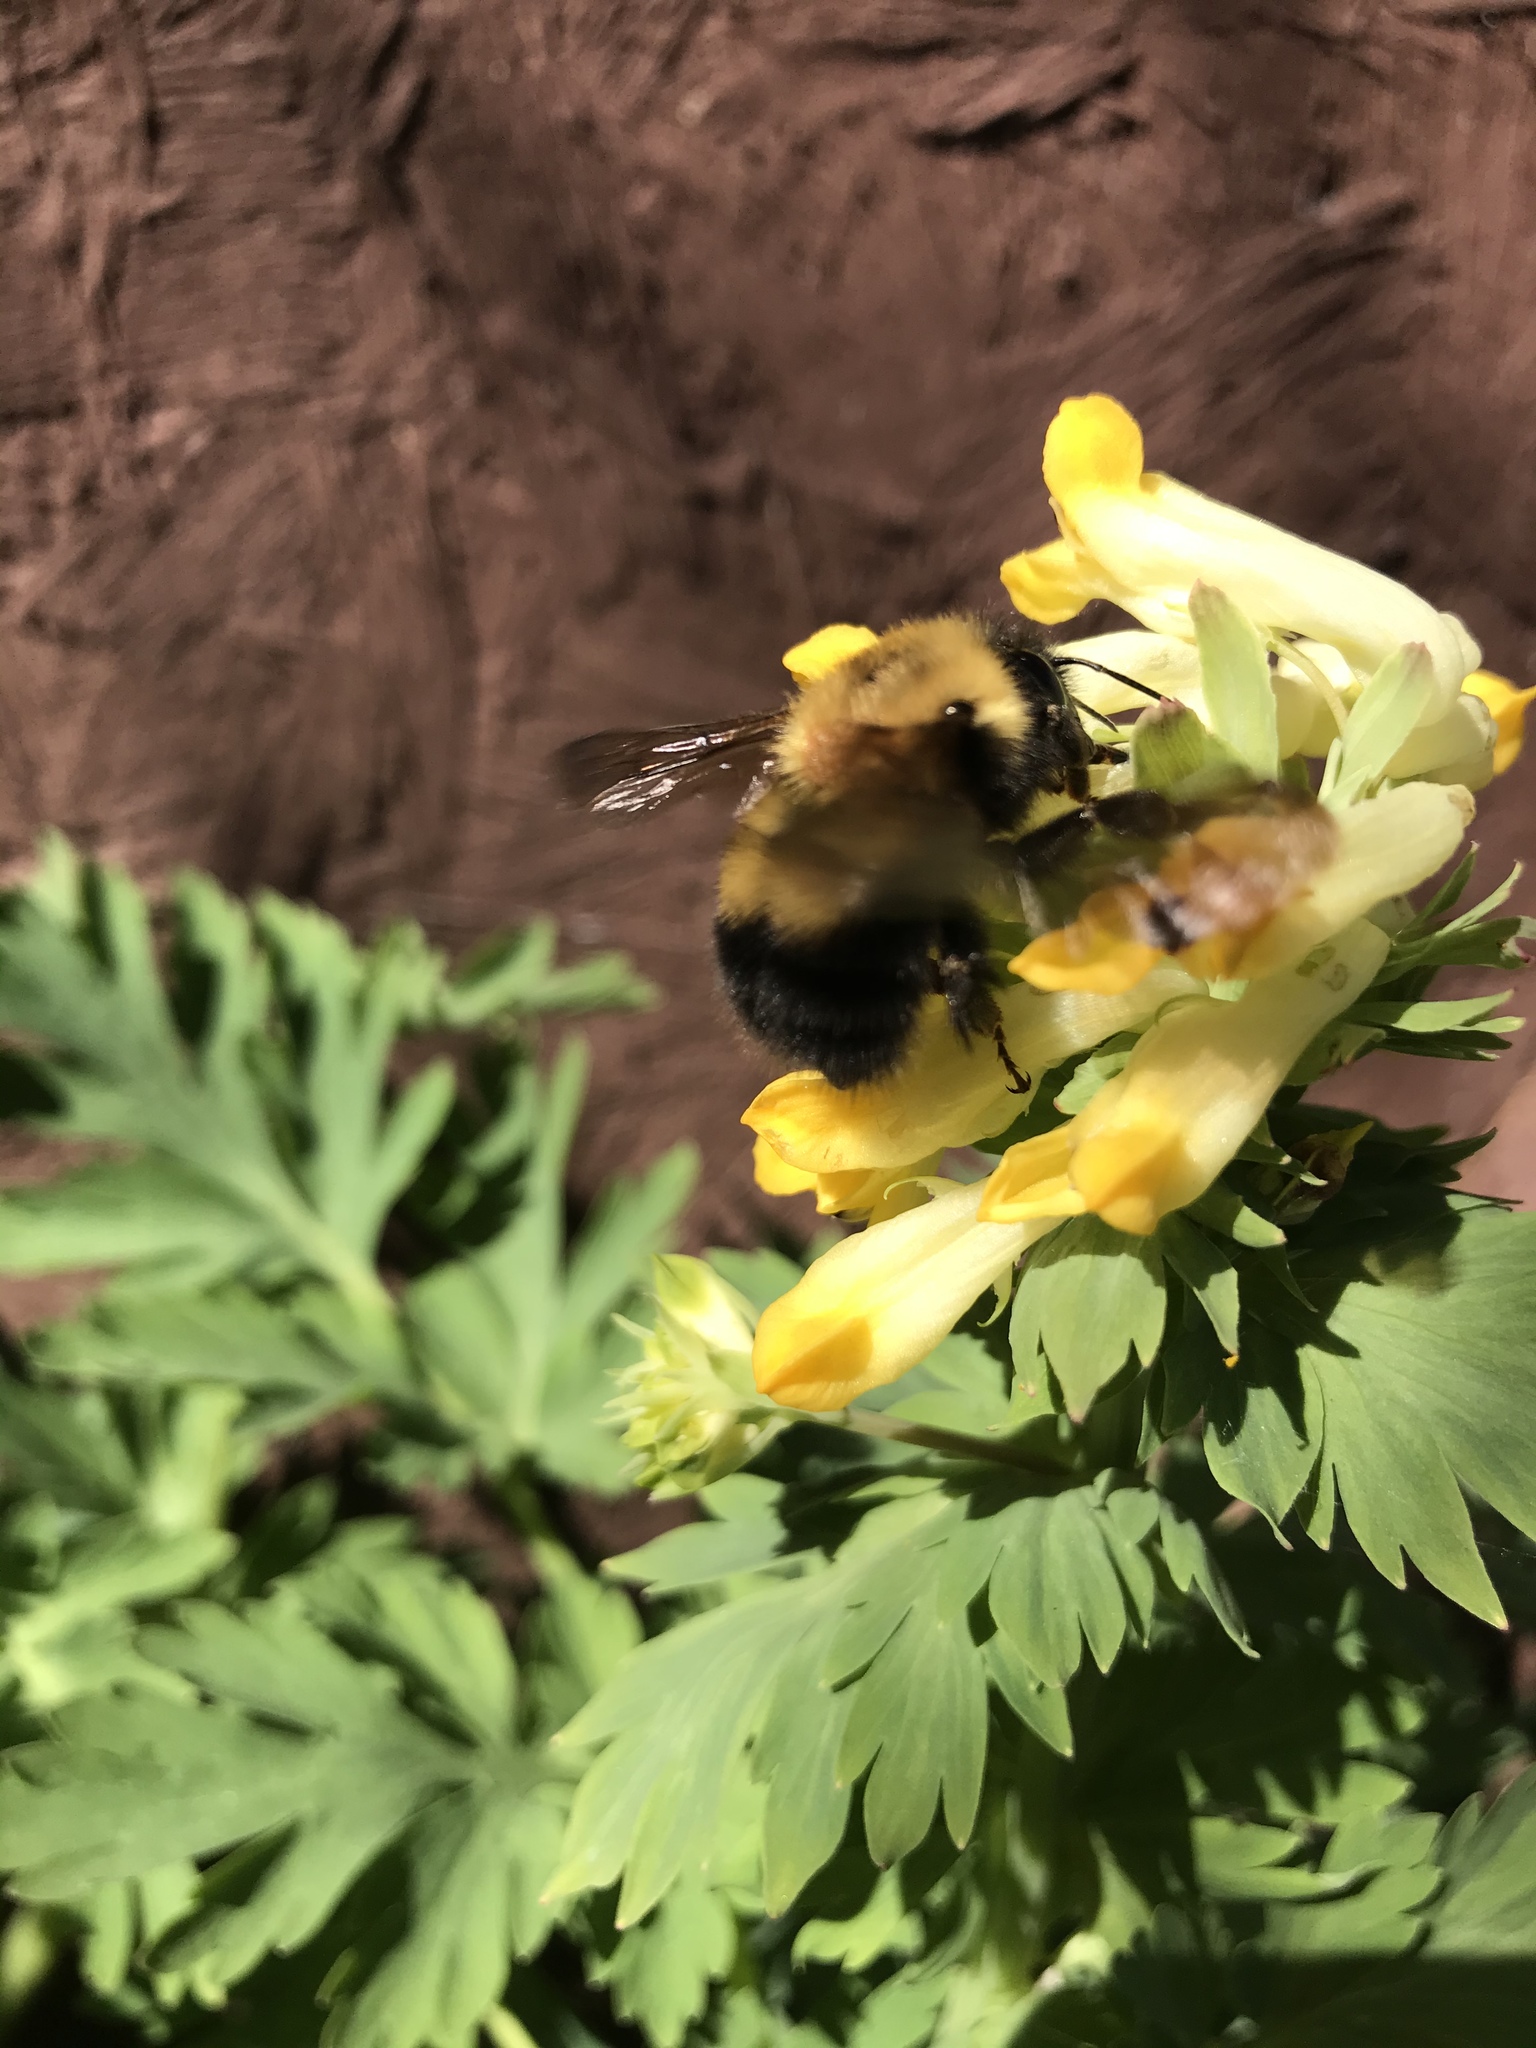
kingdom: Animalia
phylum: Arthropoda
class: Insecta
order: Hymenoptera
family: Apidae
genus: Bombus
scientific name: Bombus perplexus
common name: Confusing bumble bee
